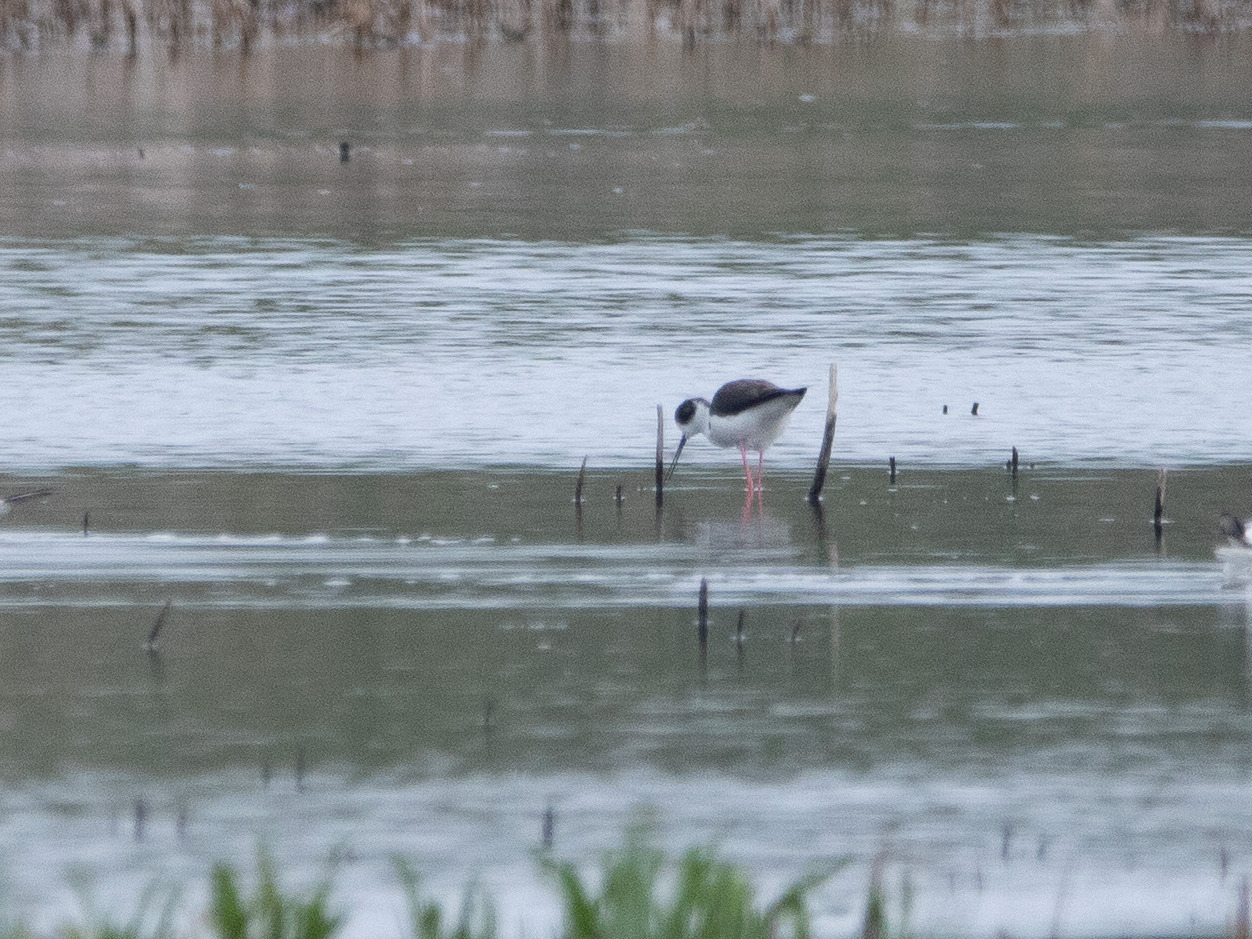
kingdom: Animalia
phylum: Chordata
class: Aves
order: Charadriiformes
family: Recurvirostridae
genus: Himantopus
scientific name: Himantopus himantopus
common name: Black-winged stilt
